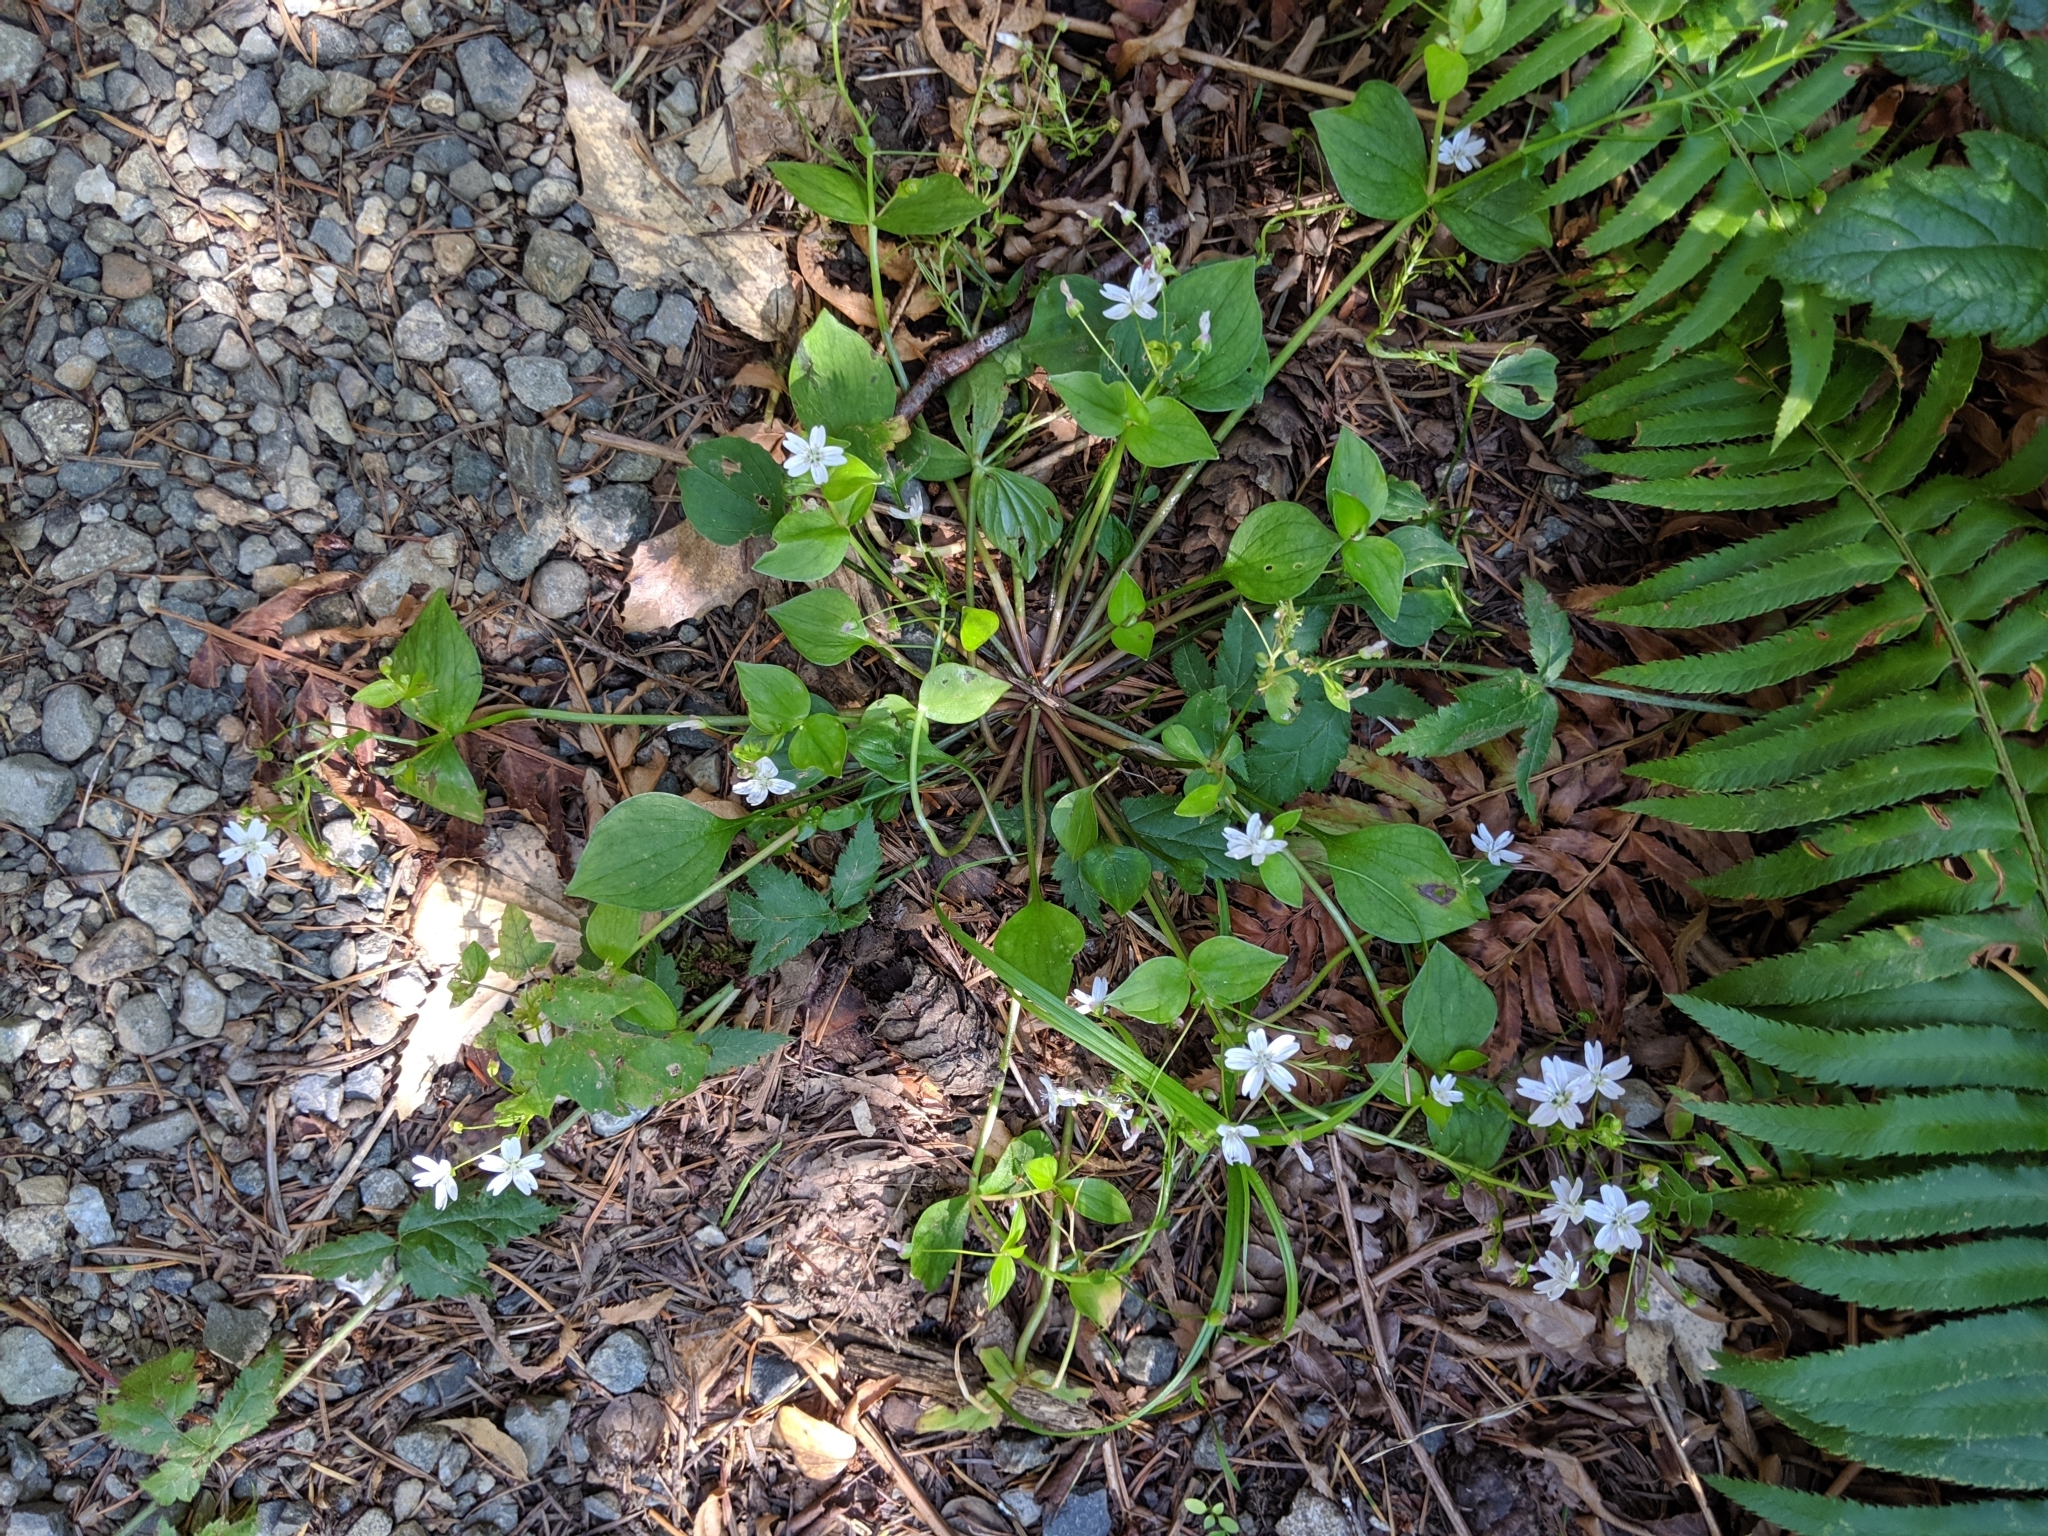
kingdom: Plantae
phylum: Tracheophyta
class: Magnoliopsida
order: Caryophyllales
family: Montiaceae
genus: Claytonia
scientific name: Claytonia sibirica
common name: Pink purslane
